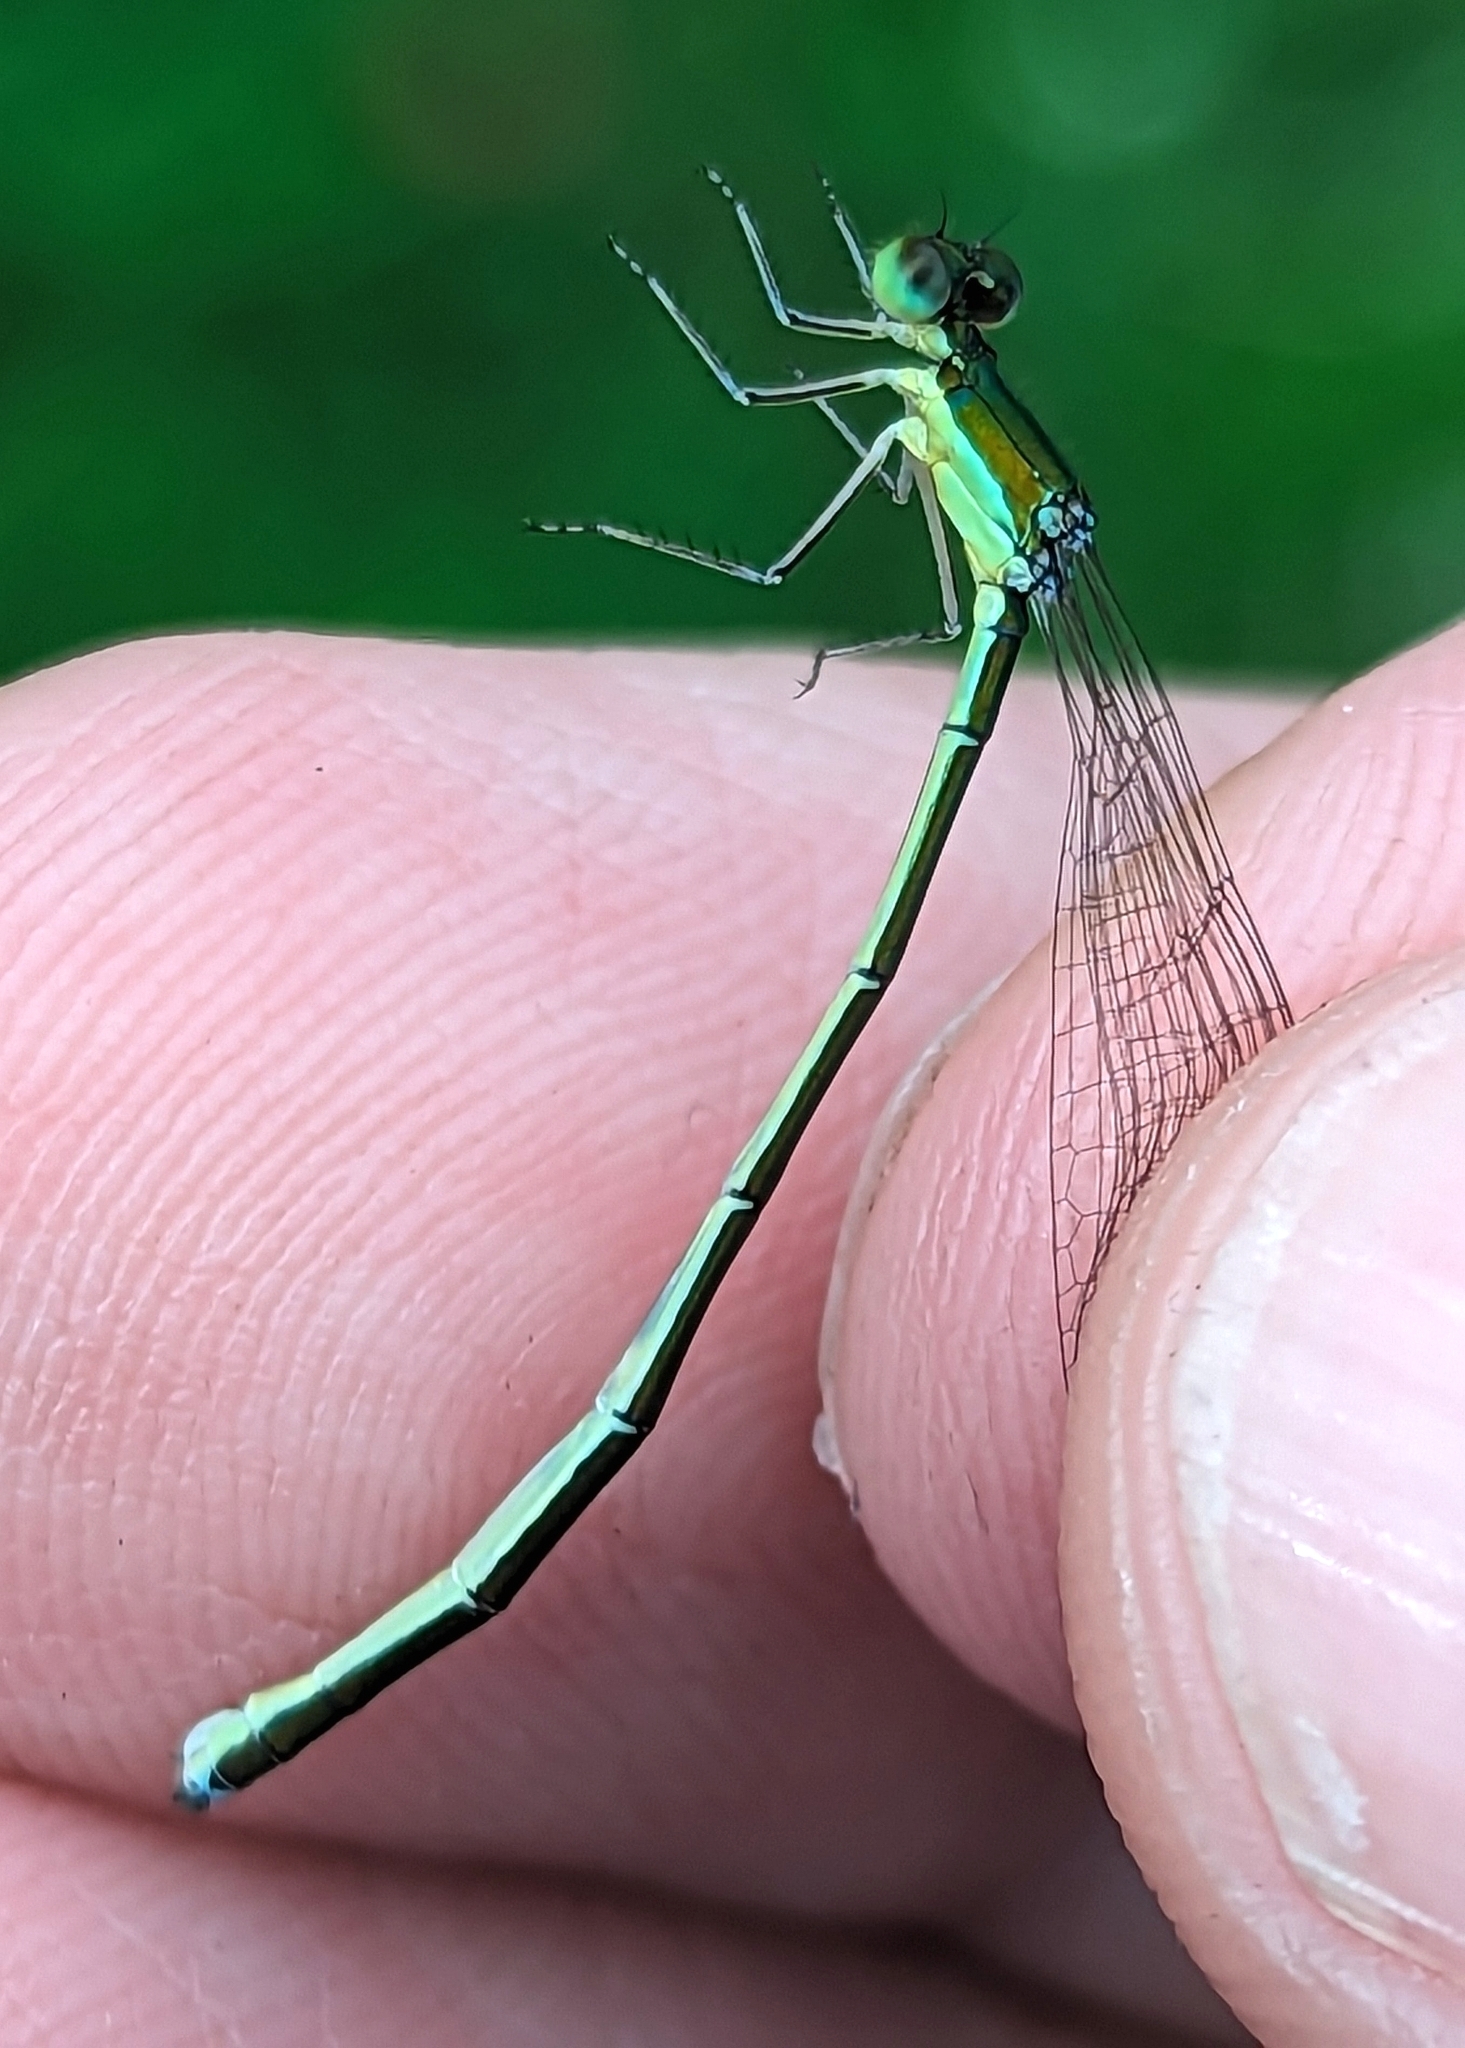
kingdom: Animalia
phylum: Arthropoda
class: Insecta
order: Odonata
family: Coenagrionidae
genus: Nehalennia
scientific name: Nehalennia irene
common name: Sedge sprite
